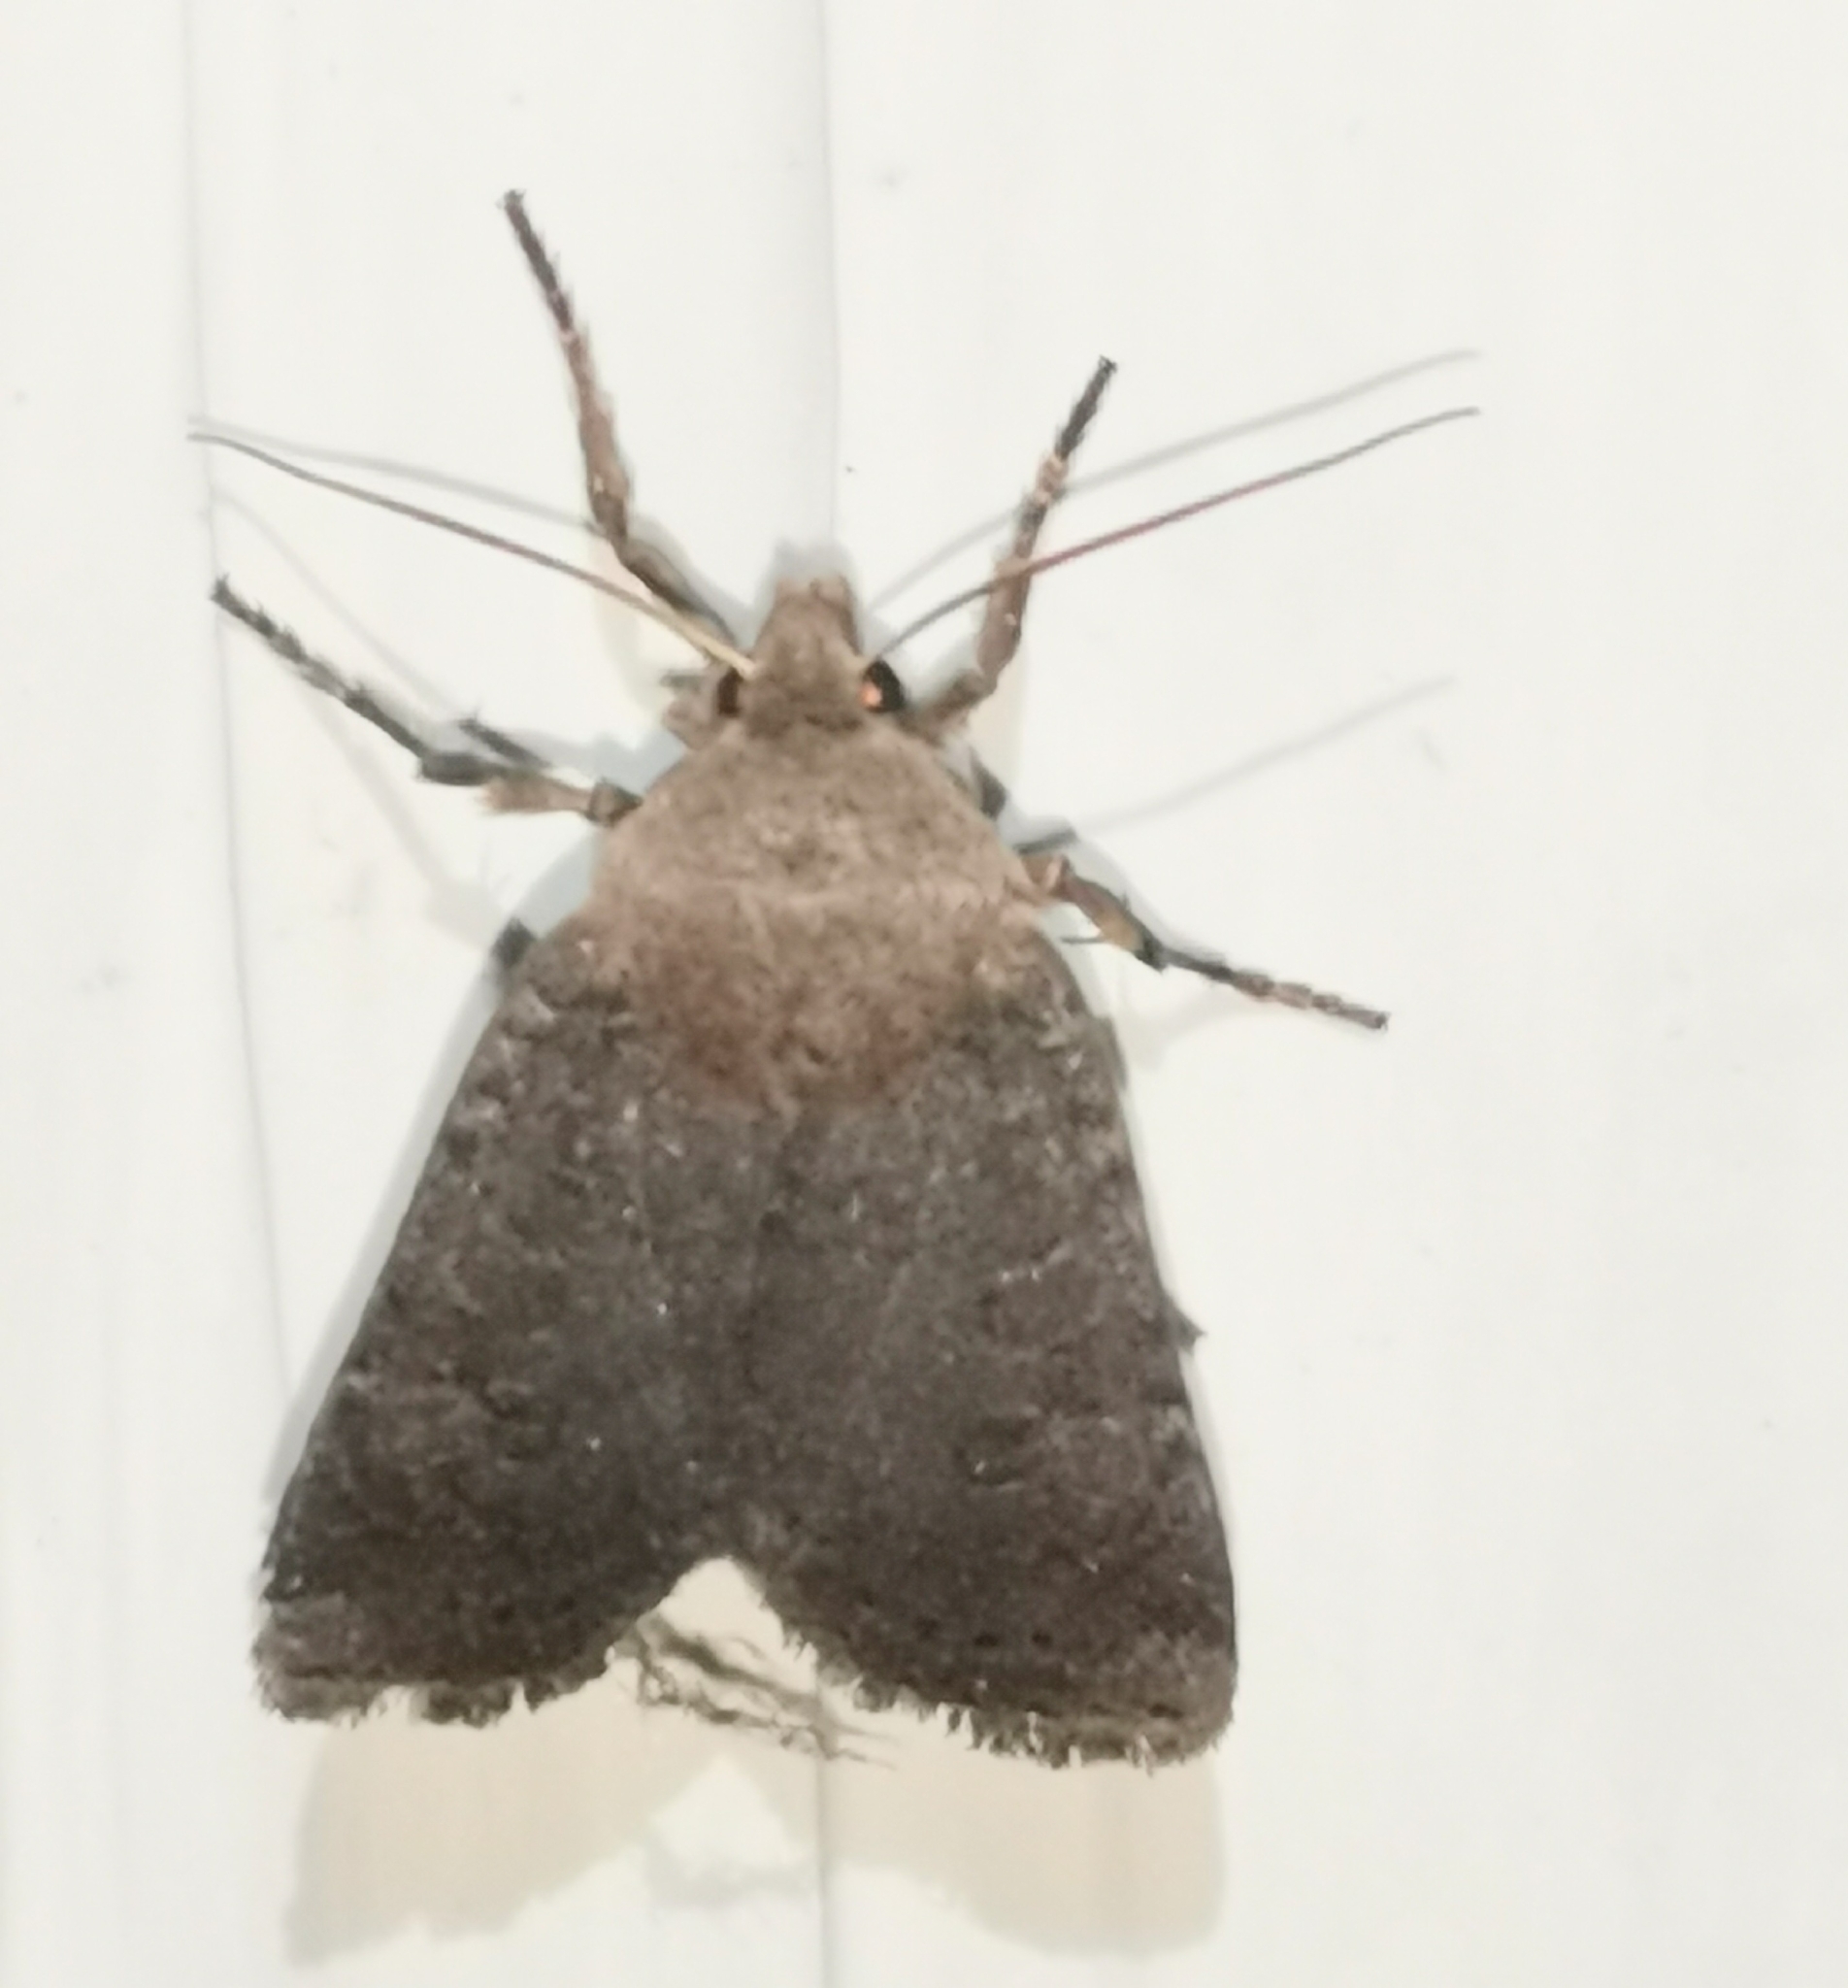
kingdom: Animalia
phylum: Arthropoda
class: Insecta
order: Lepidoptera
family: Noctuidae
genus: Conistra
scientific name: Conistra vaccinii
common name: Chestnut
